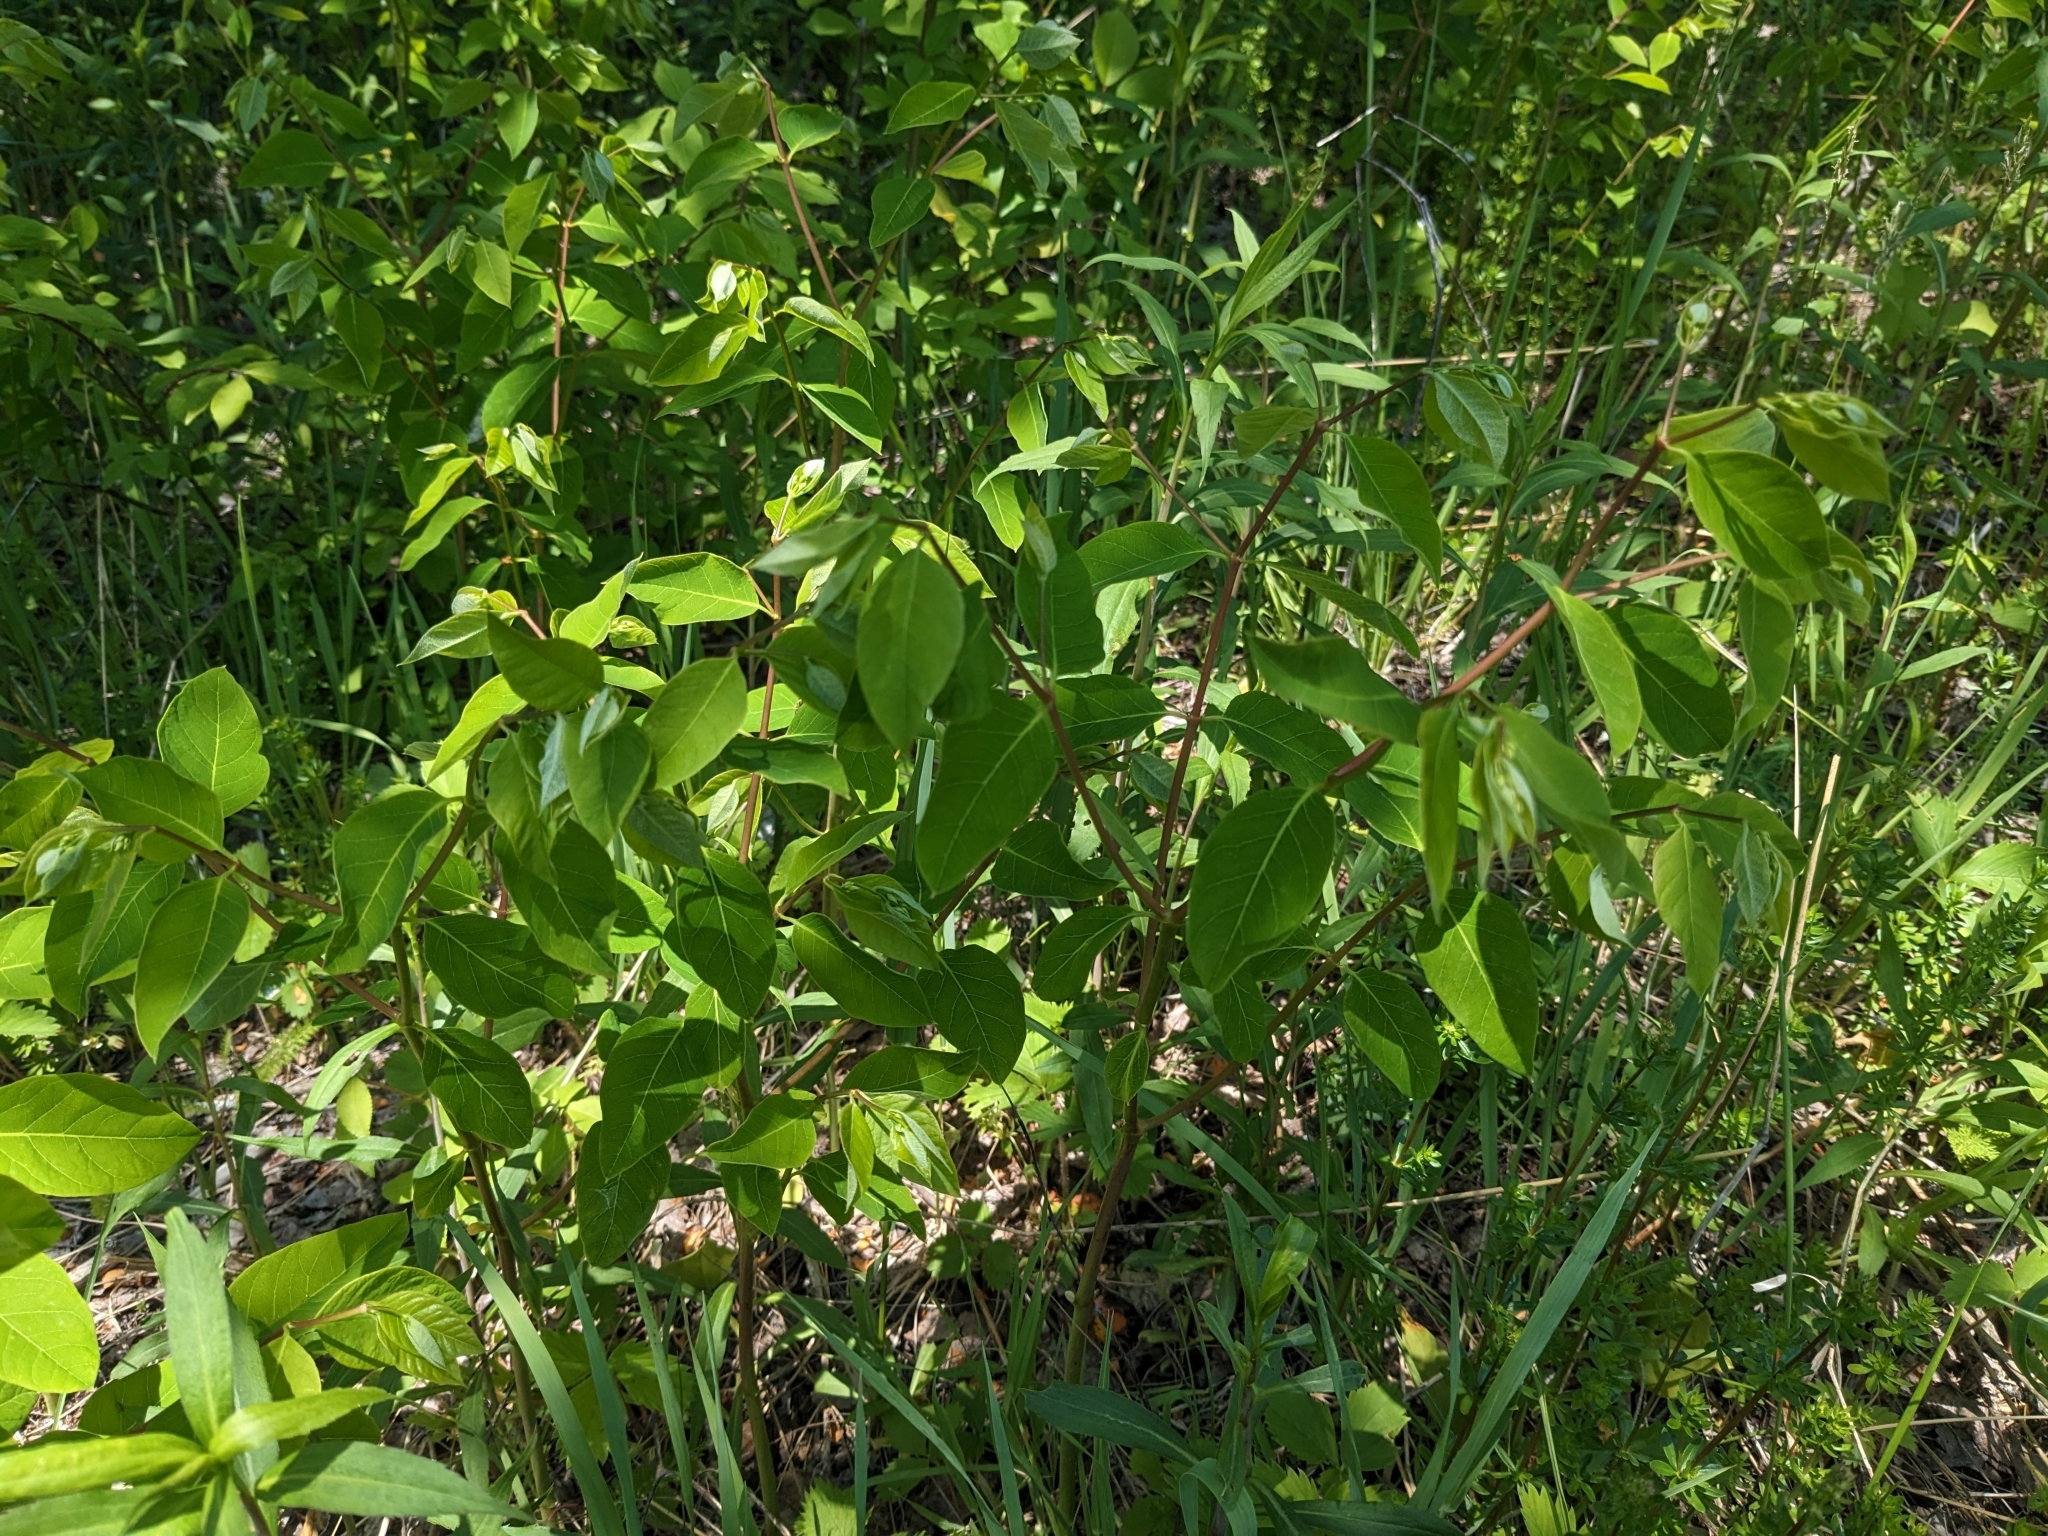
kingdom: Plantae
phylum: Tracheophyta
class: Magnoliopsida
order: Gentianales
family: Apocynaceae
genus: Apocynum
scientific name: Apocynum androsaemifolium
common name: Spreading dogbane
